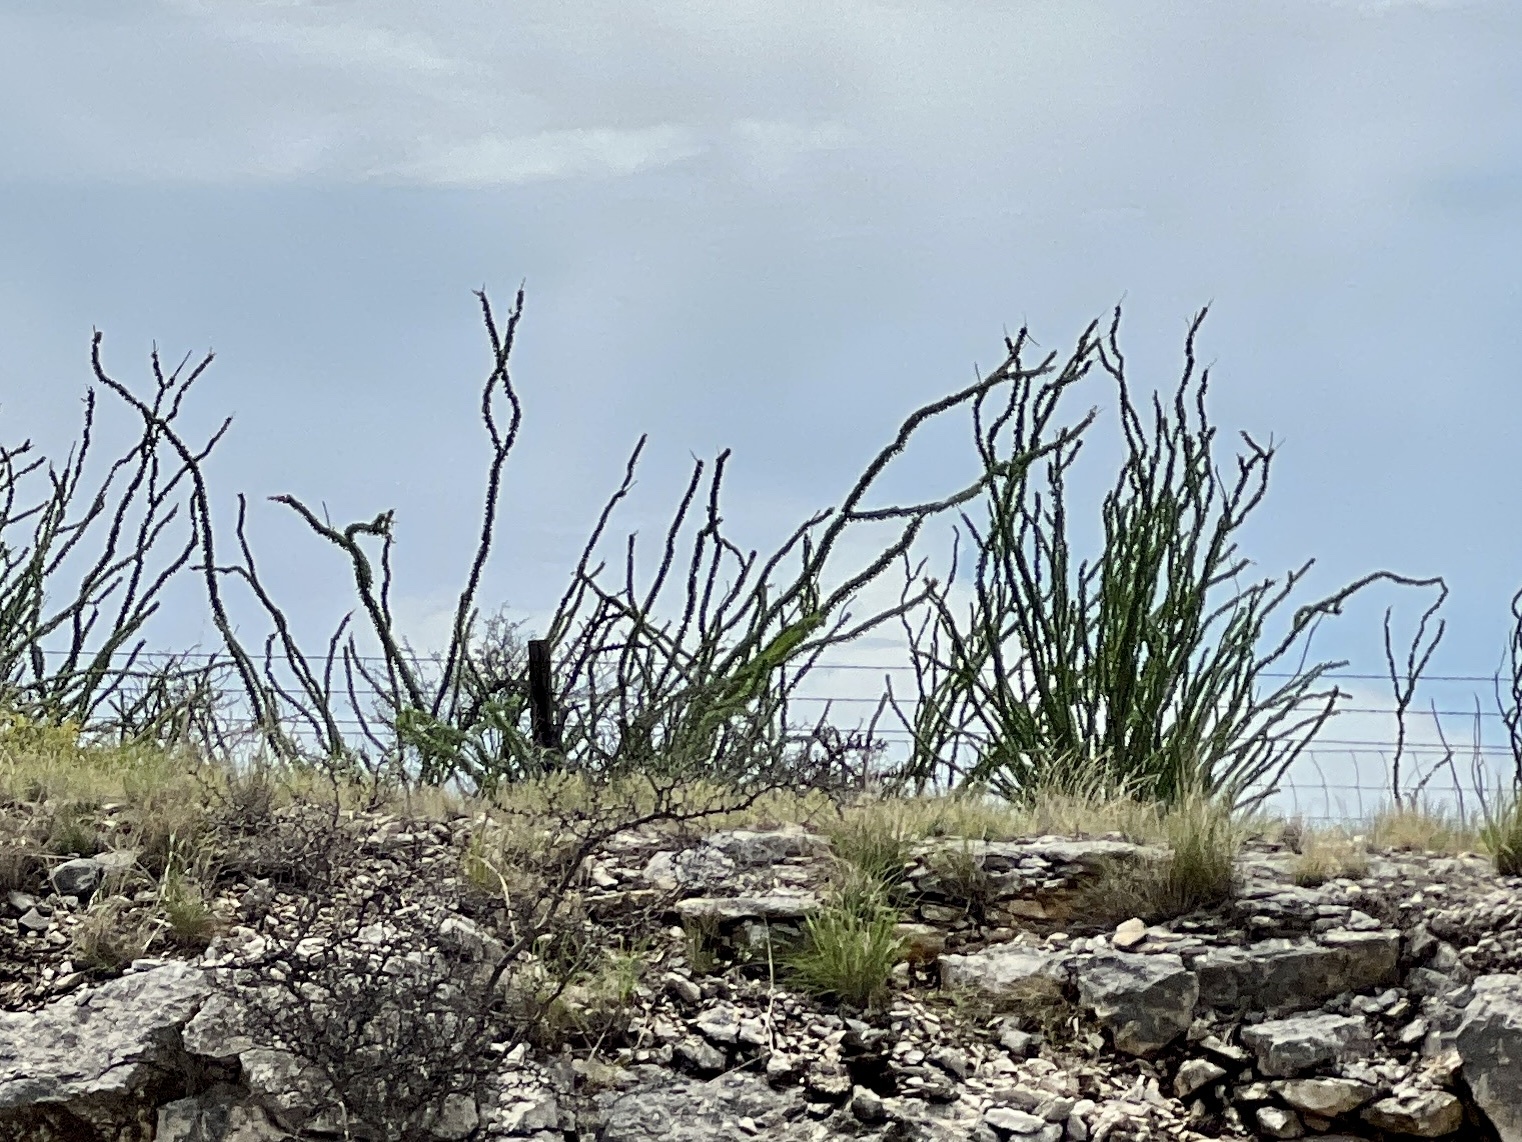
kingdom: Plantae
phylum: Tracheophyta
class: Magnoliopsida
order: Ericales
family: Fouquieriaceae
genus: Fouquieria
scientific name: Fouquieria splendens
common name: Vine-cactus
